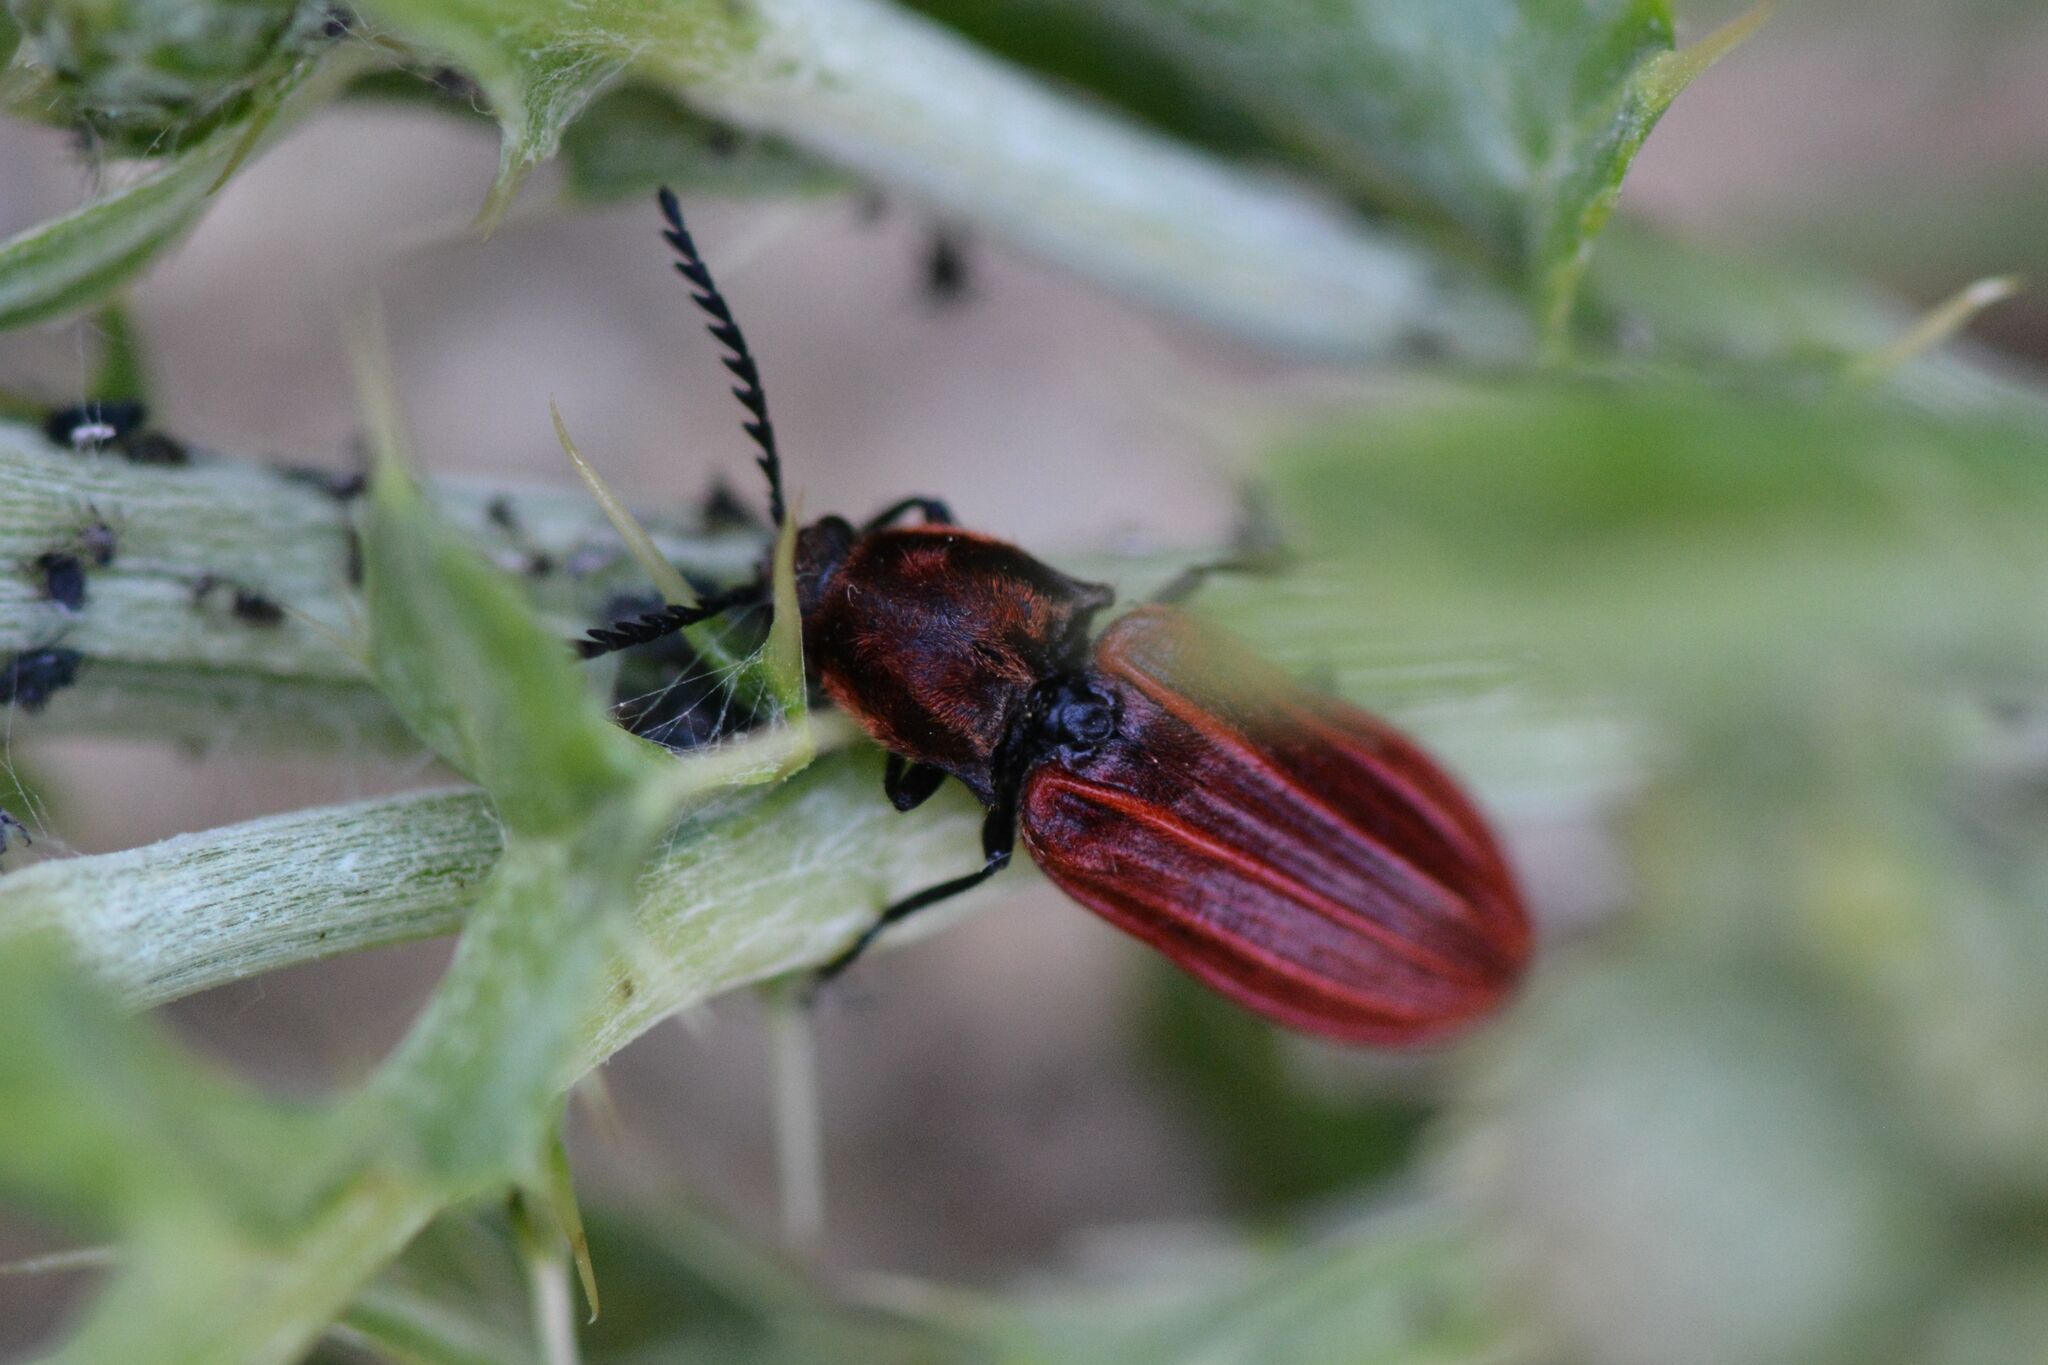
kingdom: Animalia
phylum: Arthropoda
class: Insecta
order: Coleoptera
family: Elateridae
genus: Anostirus
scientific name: Anostirus purpureus
